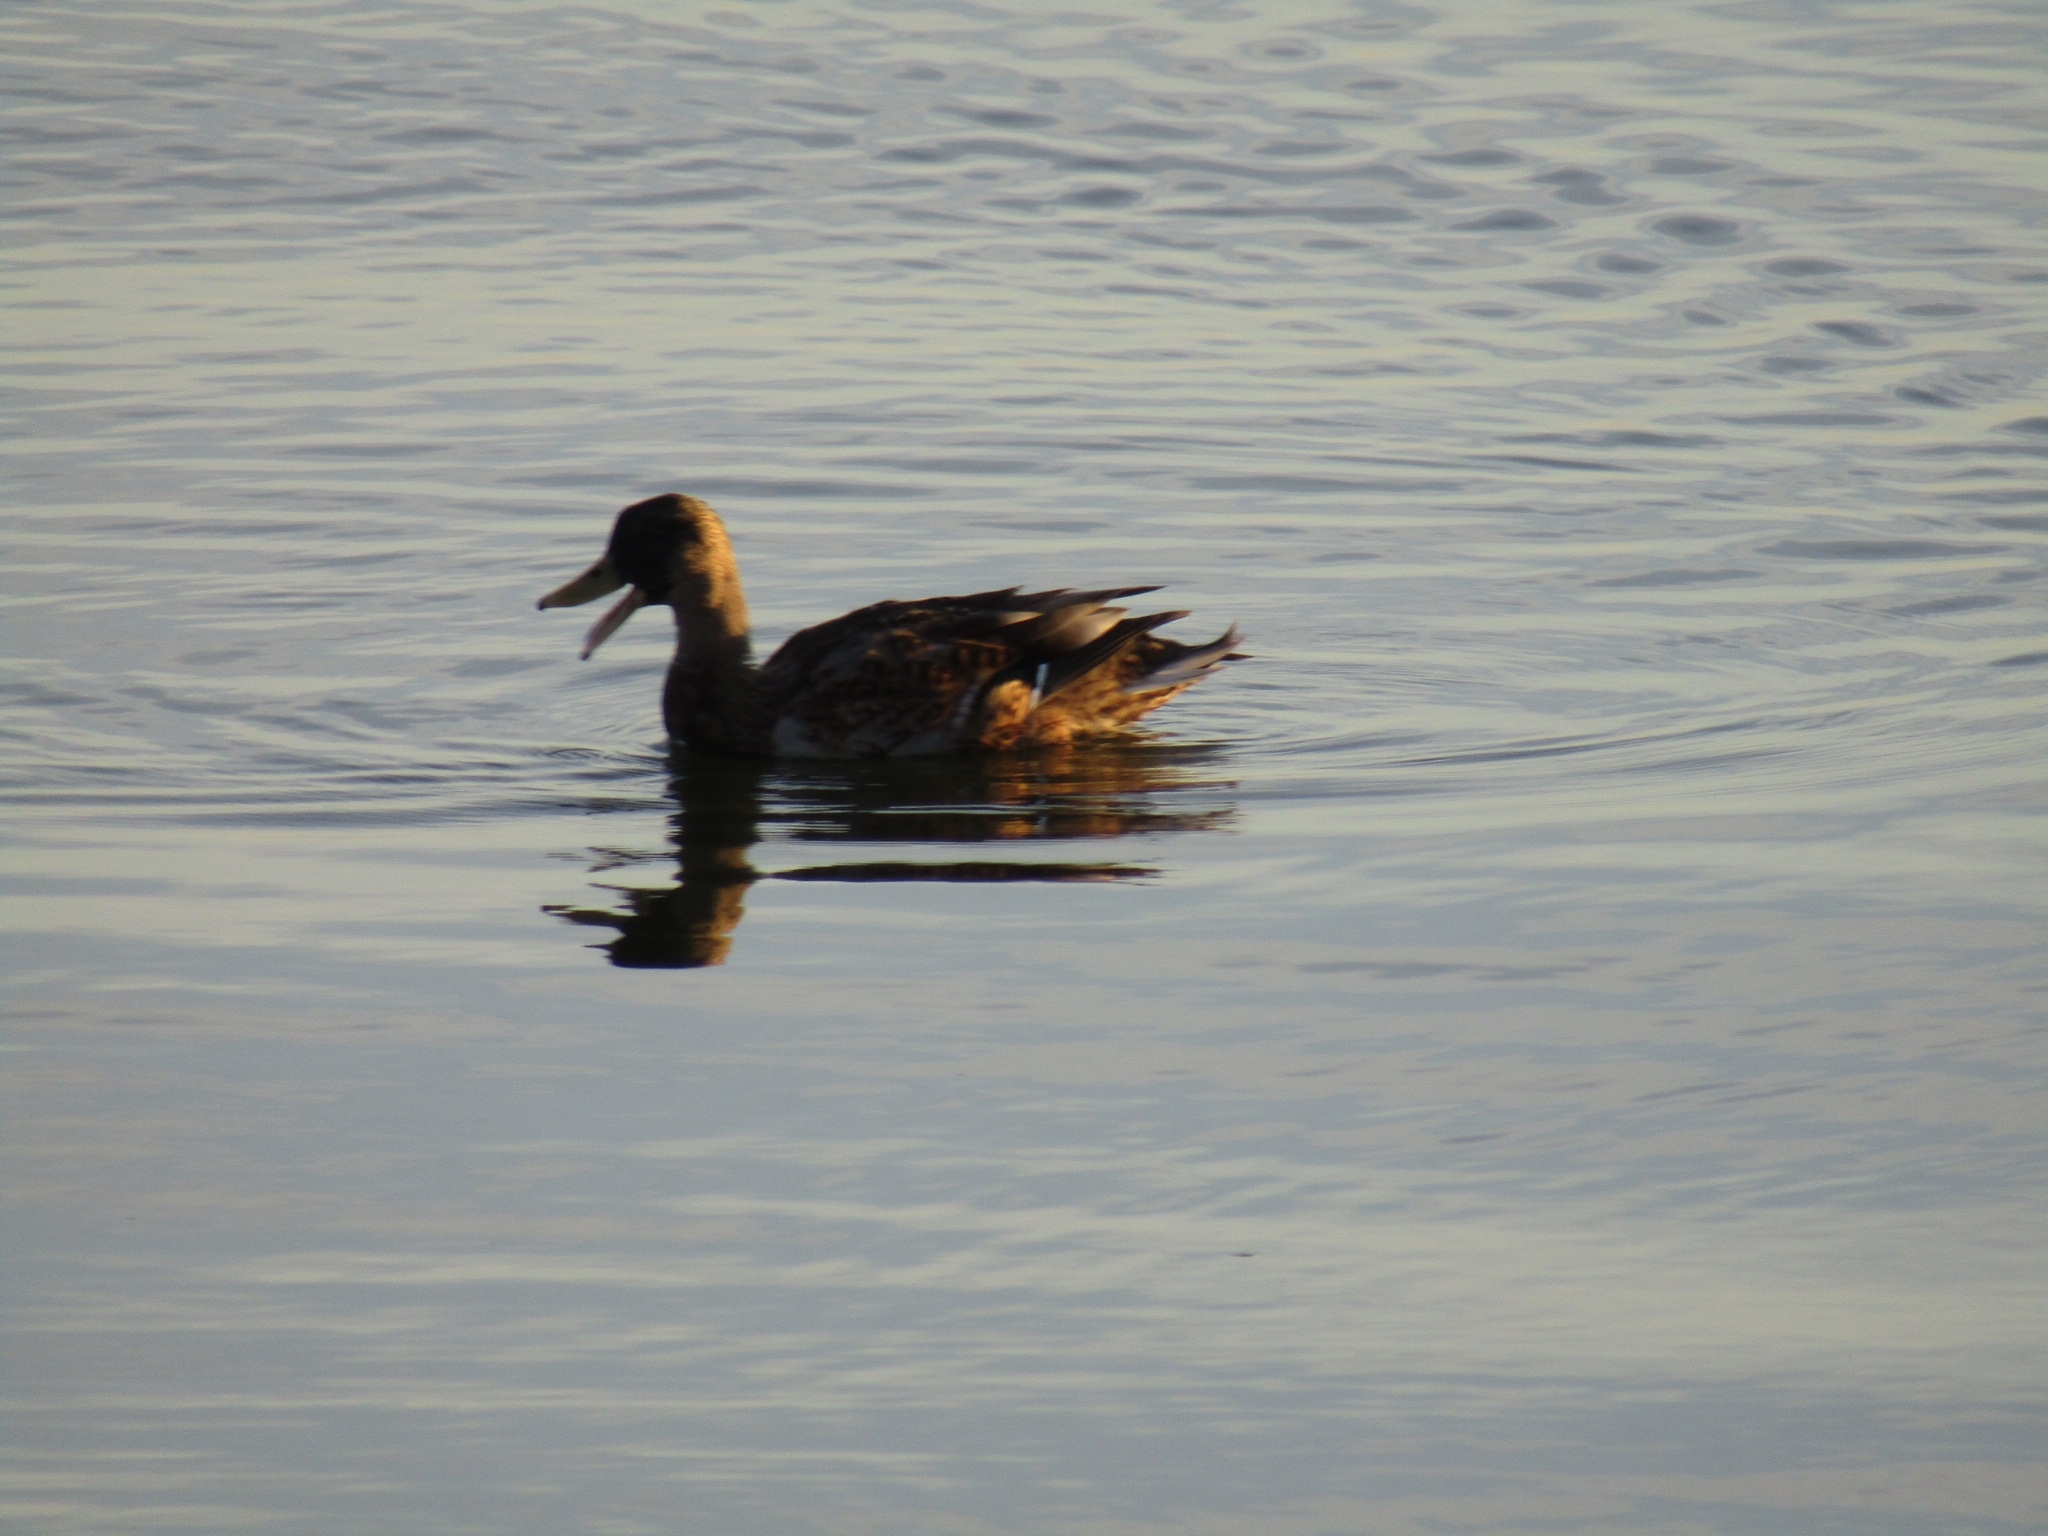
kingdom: Animalia
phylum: Chordata
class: Aves
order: Anseriformes
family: Anatidae
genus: Anas
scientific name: Anas platyrhynchos
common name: Mallard
